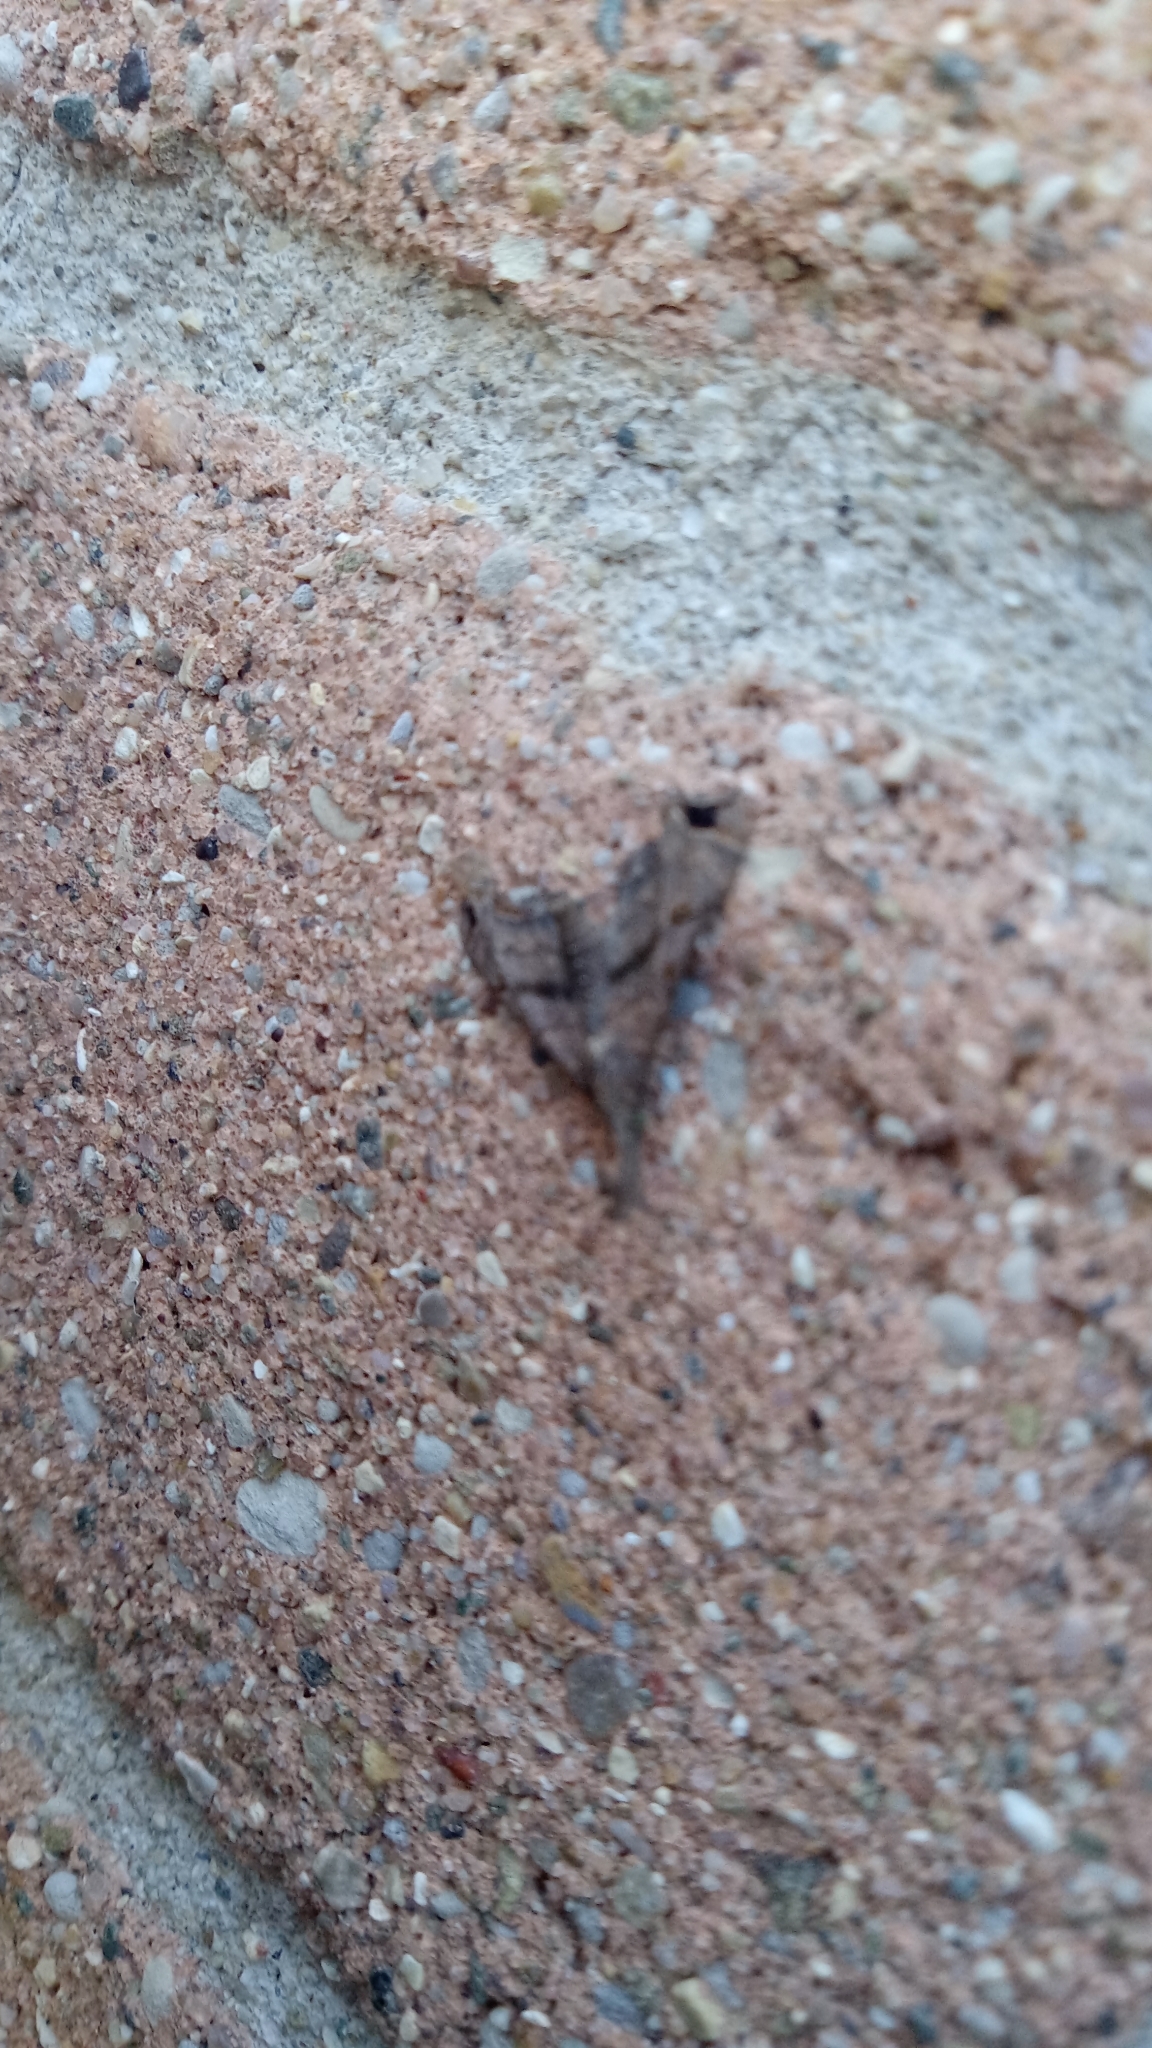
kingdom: Animalia
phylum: Arthropoda
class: Insecta
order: Lepidoptera
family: Erebidae
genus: Palthis
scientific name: Palthis asopialis
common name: Faint-spotted palthis moth
